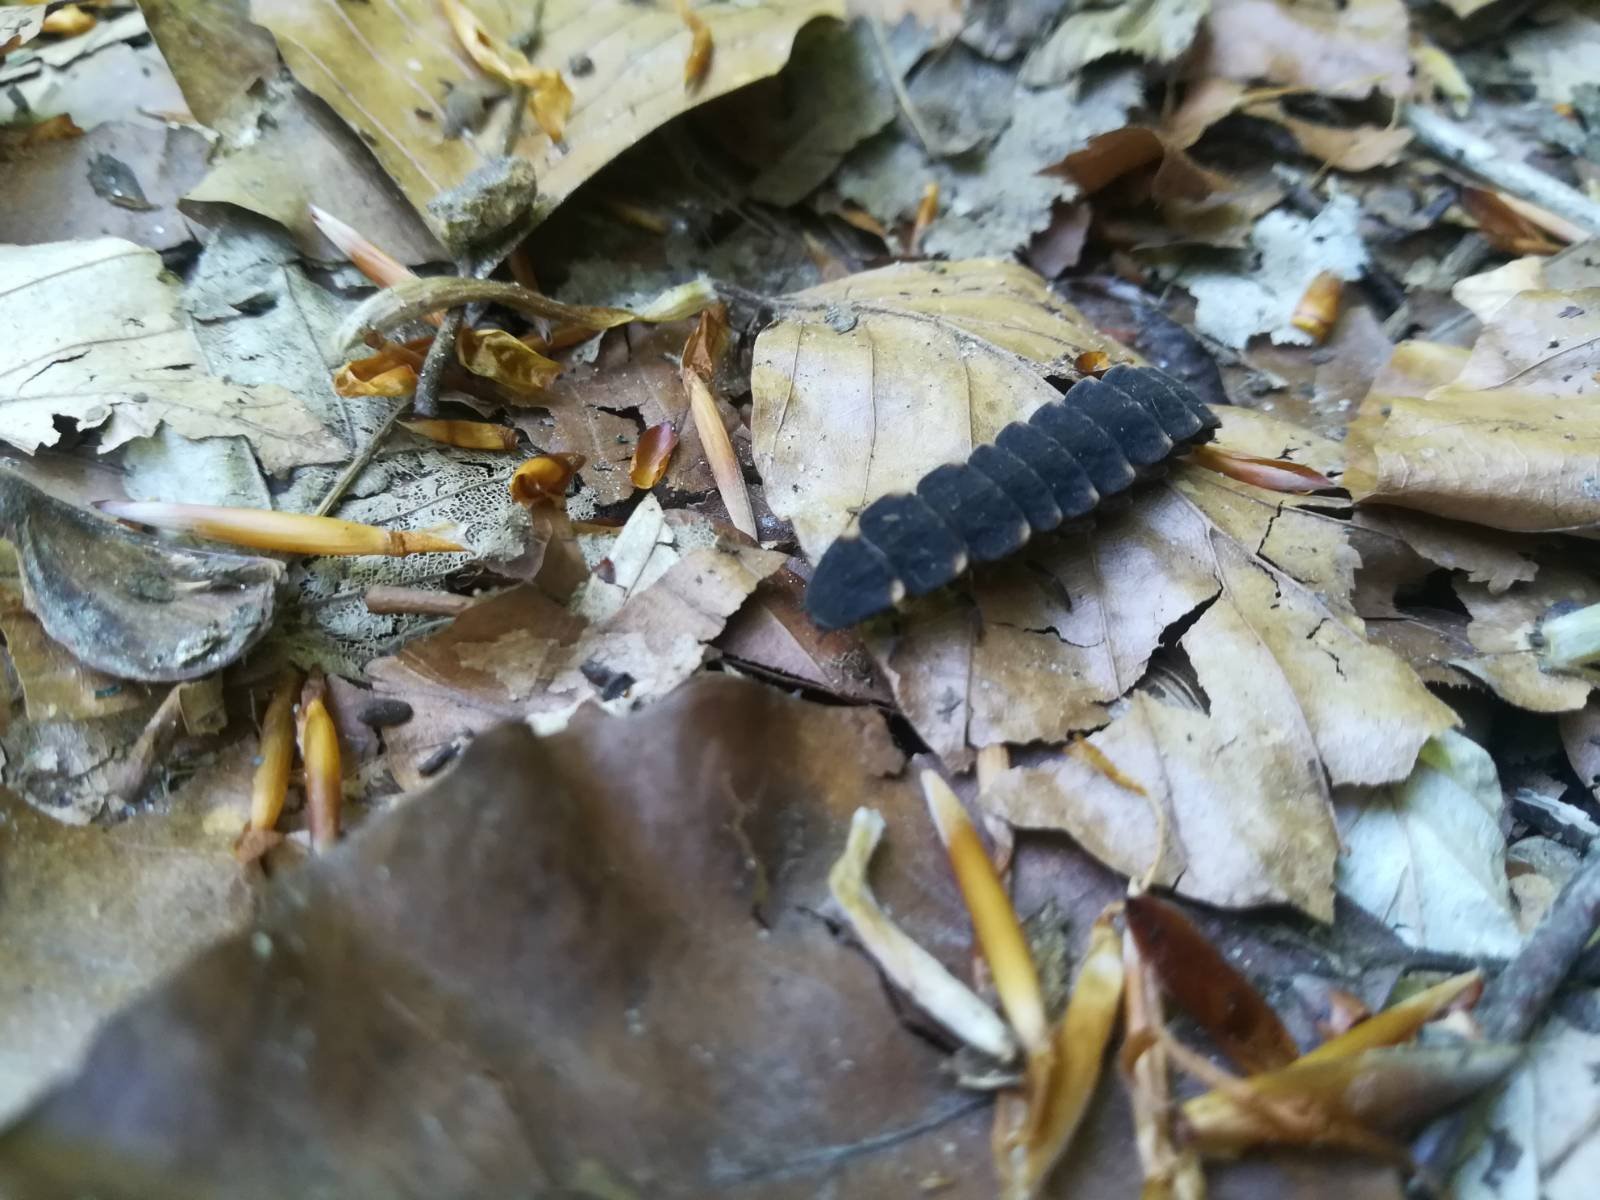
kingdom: Animalia
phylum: Arthropoda
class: Insecta
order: Coleoptera
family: Lampyridae
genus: Lampyris
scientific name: Lampyris noctiluca
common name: Glow-worm
